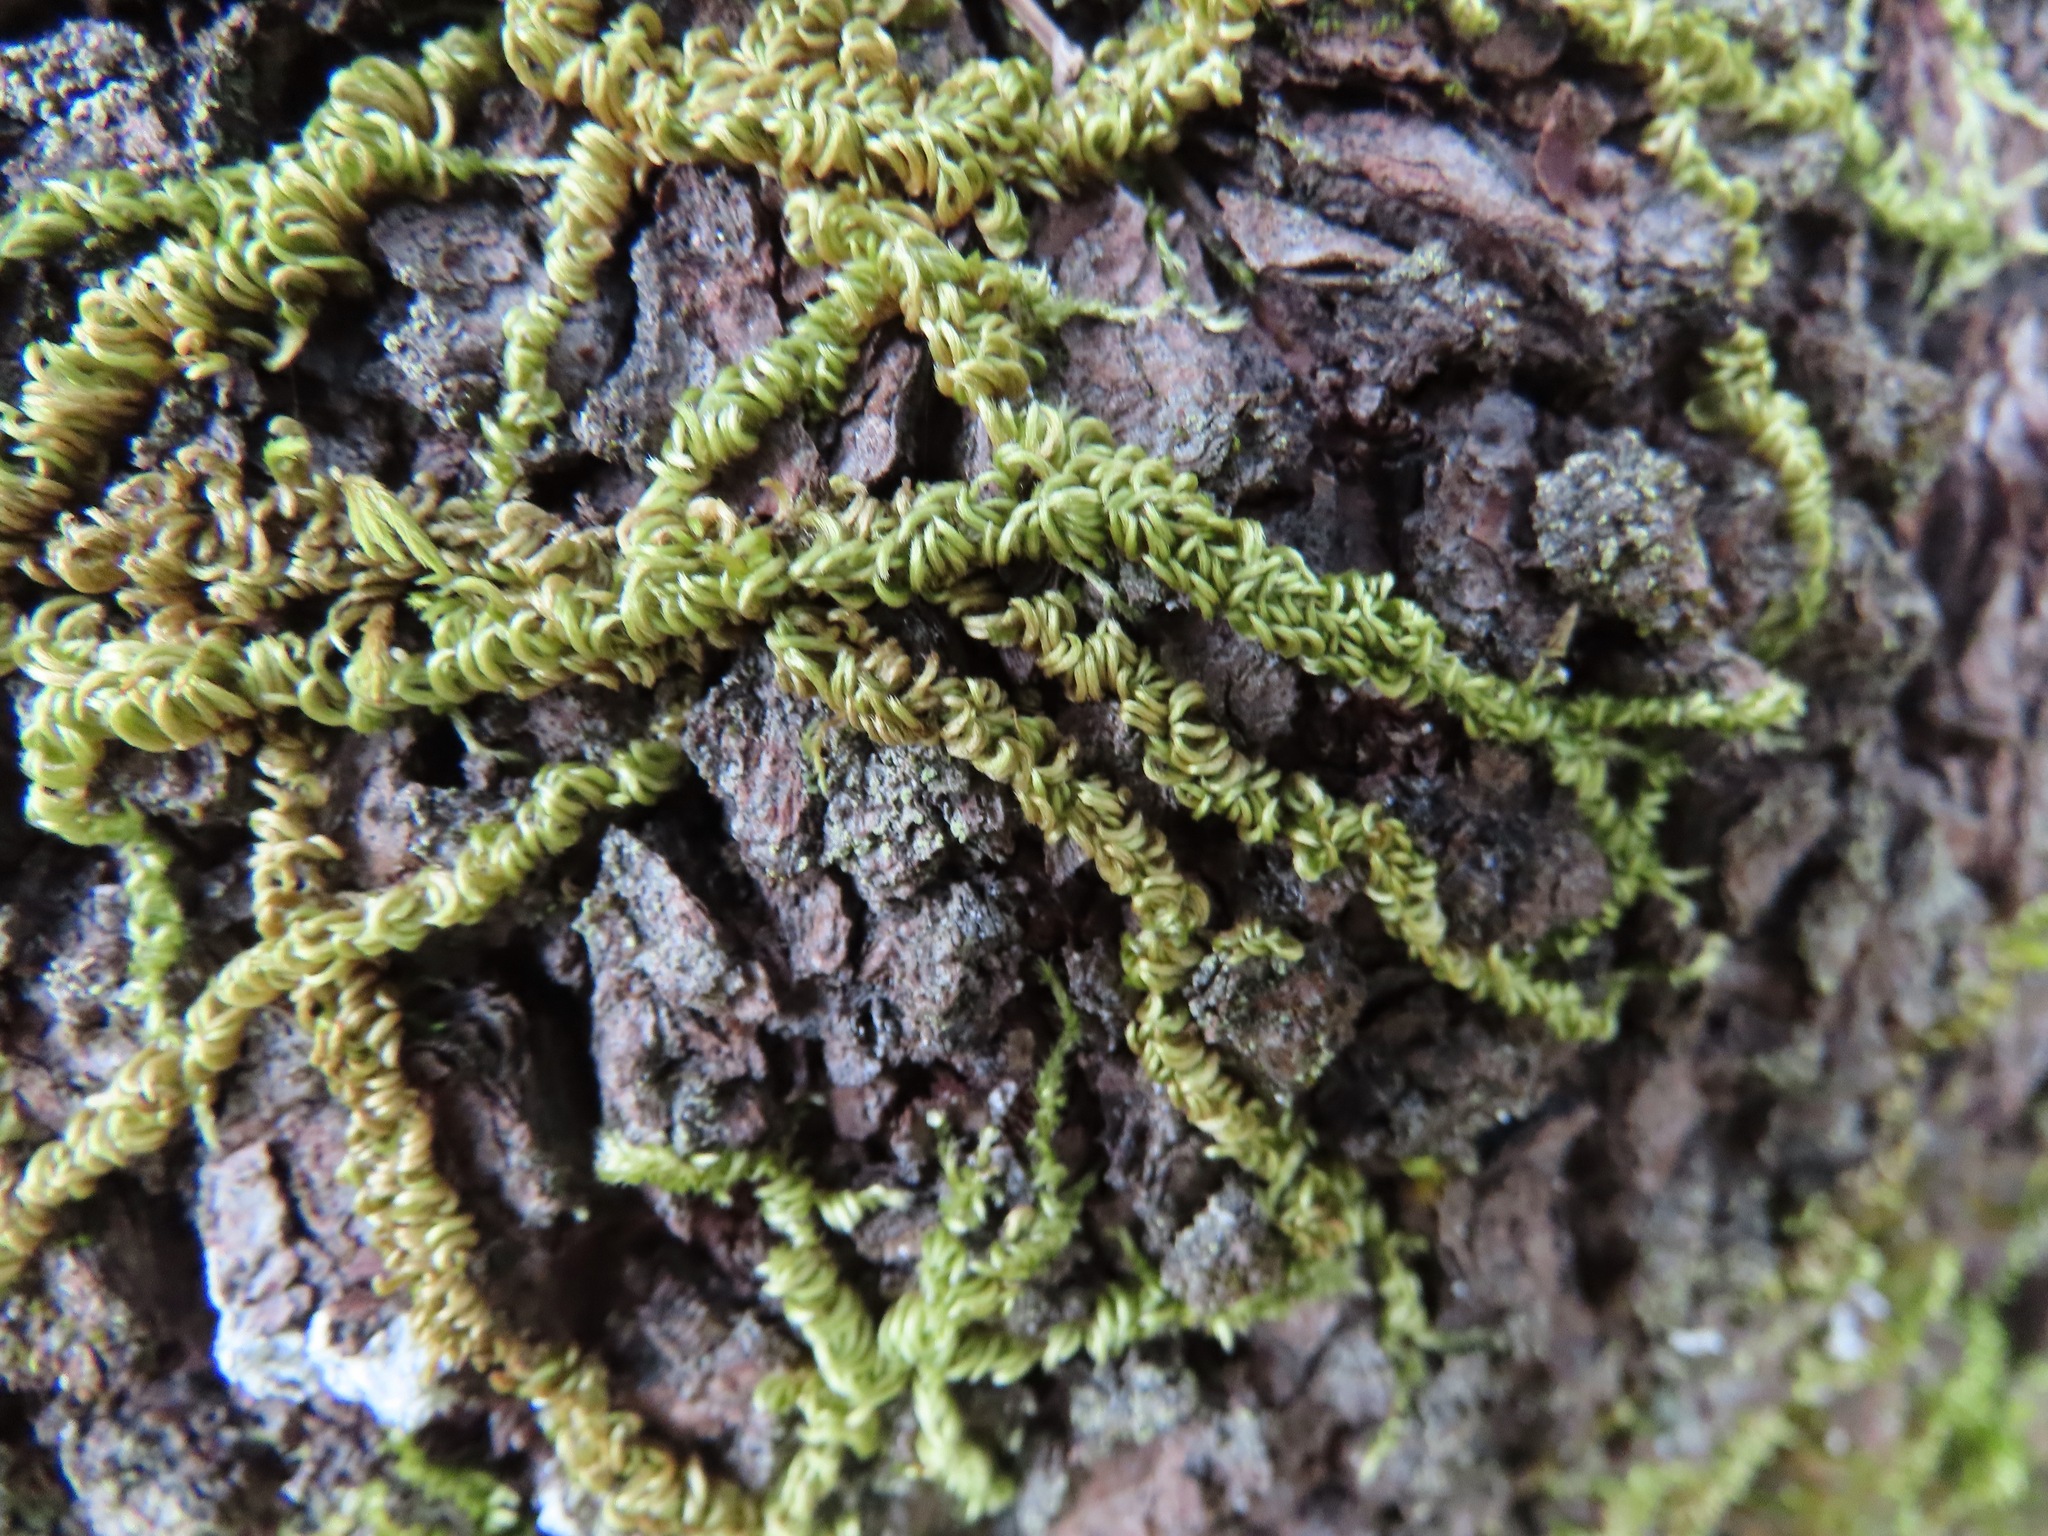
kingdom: Plantae
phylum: Bryophyta
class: Bryopsida
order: Hypnales
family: Brachytheciaceae
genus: Homalothecium
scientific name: Homalothecium nuttallii
